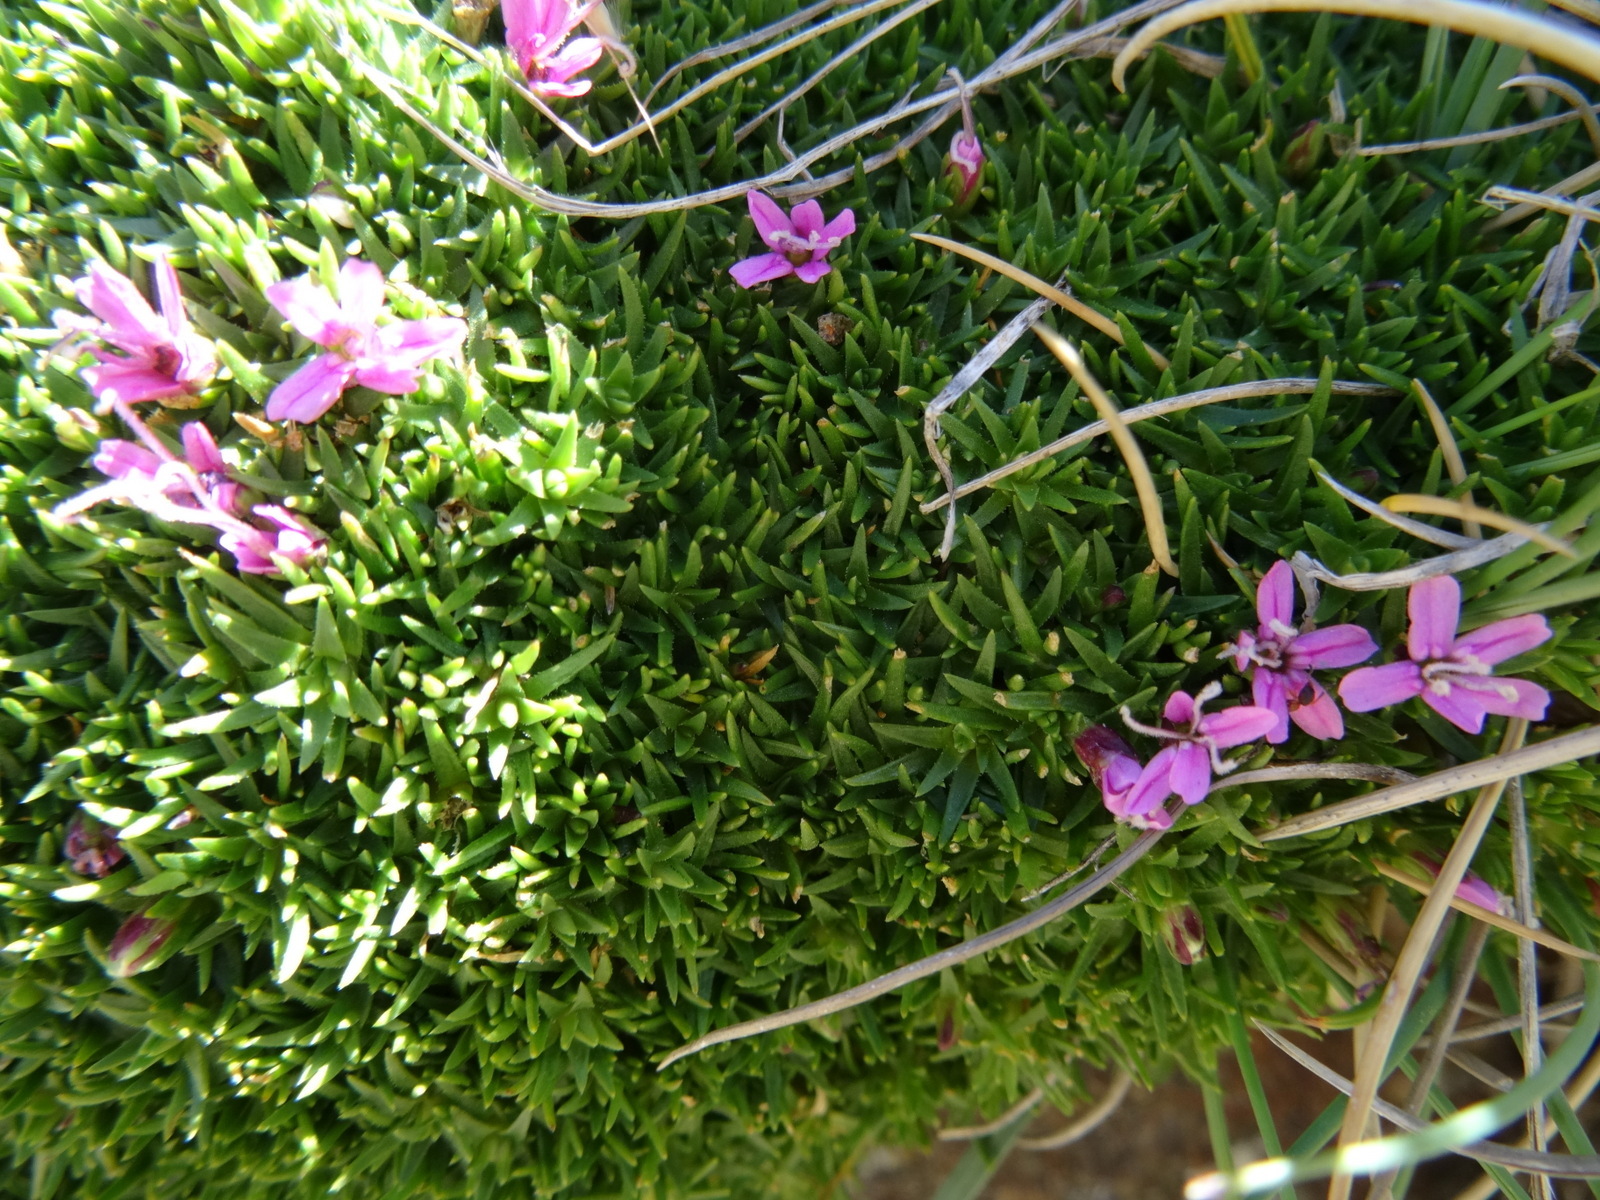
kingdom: Plantae
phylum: Tracheophyta
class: Magnoliopsida
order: Caryophyllales
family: Caryophyllaceae
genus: Silene
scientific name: Silene acaulis
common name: Moss campion
